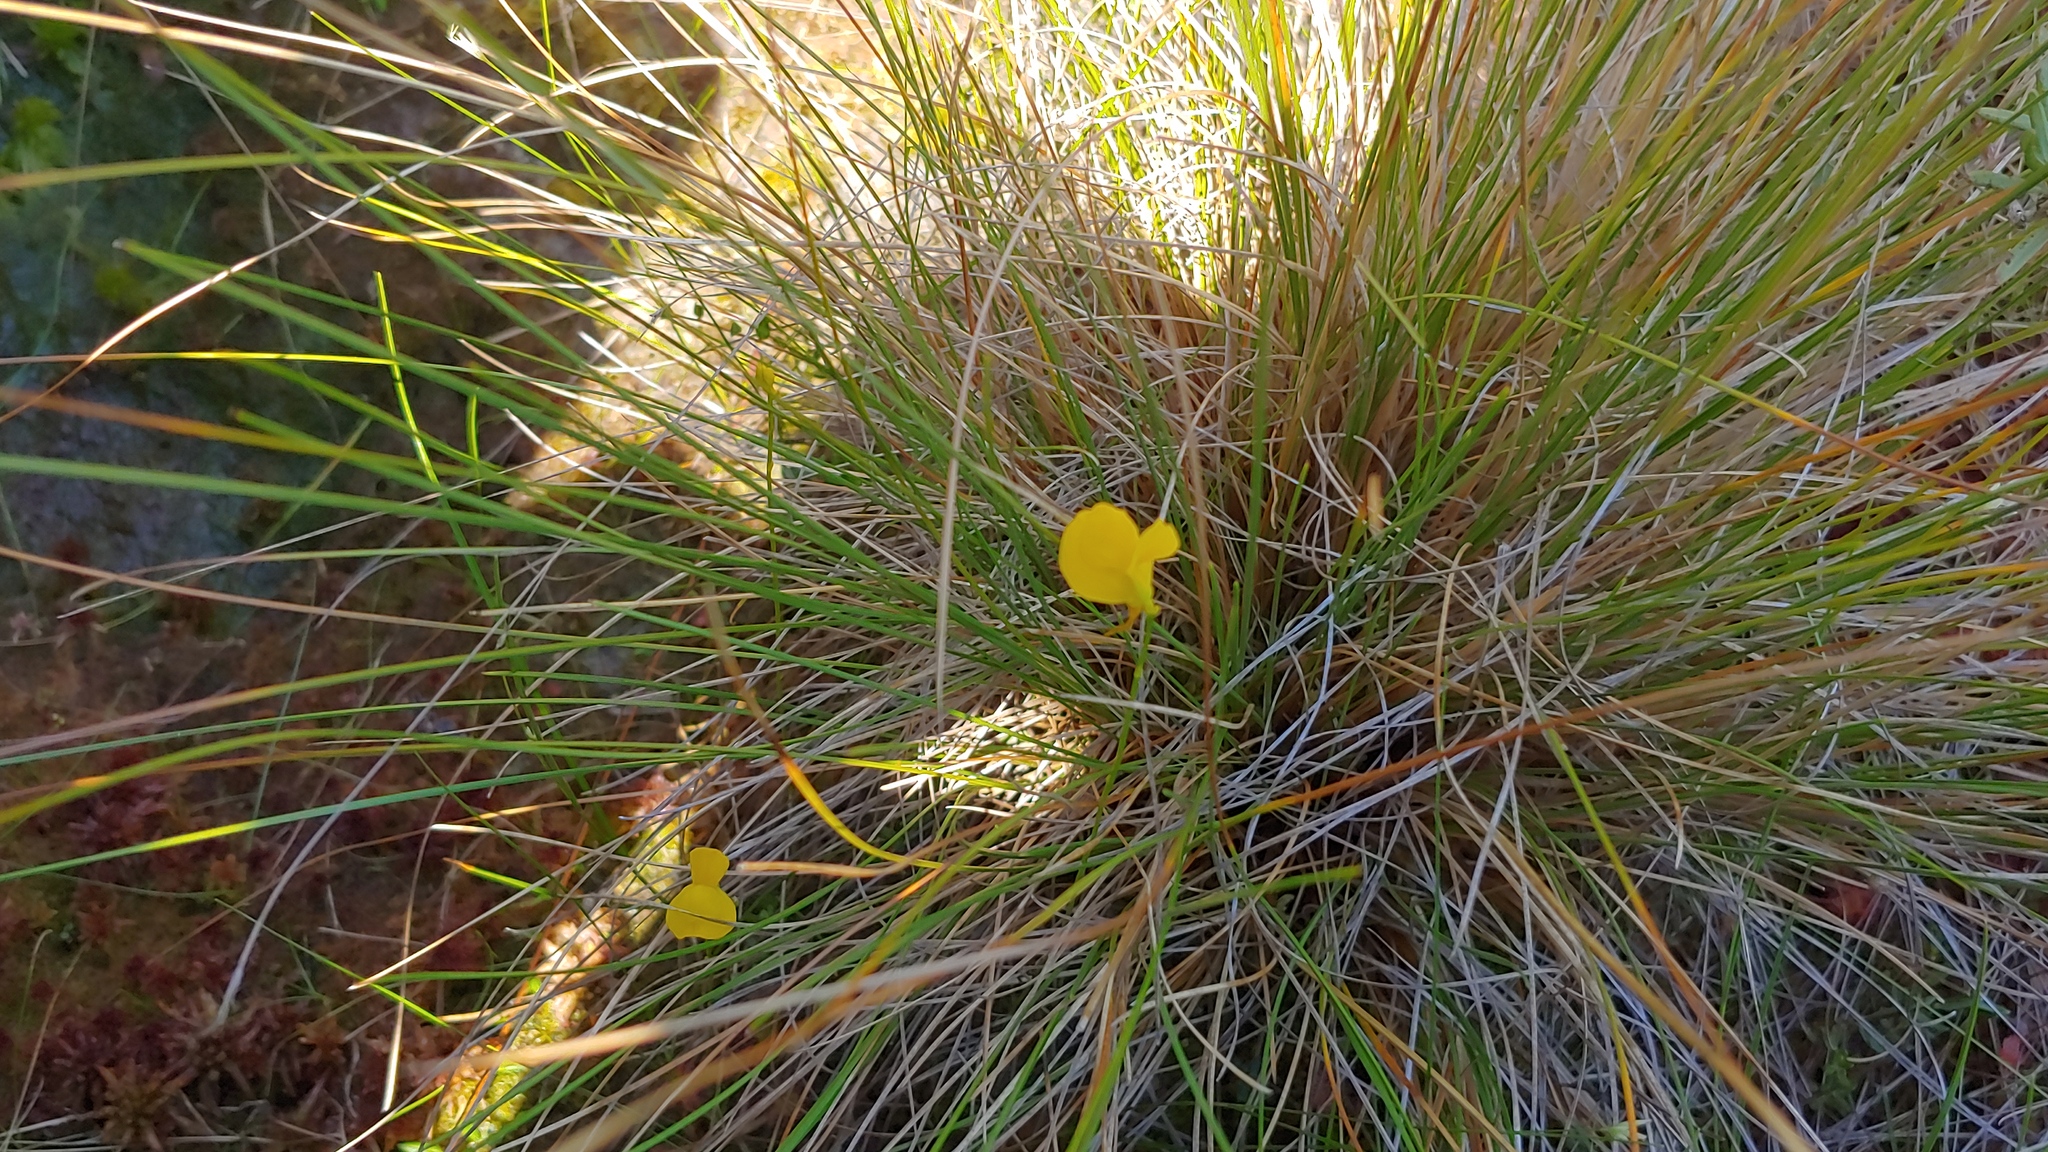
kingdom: Plantae
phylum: Tracheophyta
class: Magnoliopsida
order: Lamiales
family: Lentibulariaceae
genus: Utricularia
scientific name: Utricularia cornuta
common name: Horned bladderwort
